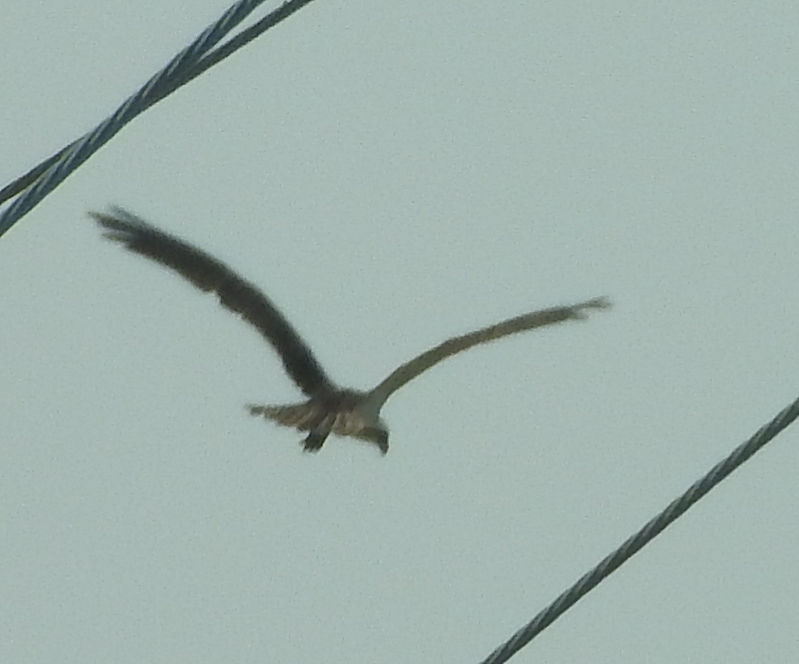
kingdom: Animalia
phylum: Chordata
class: Aves
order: Accipitriformes
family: Pandionidae
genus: Pandion
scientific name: Pandion haliaetus
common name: Osprey
